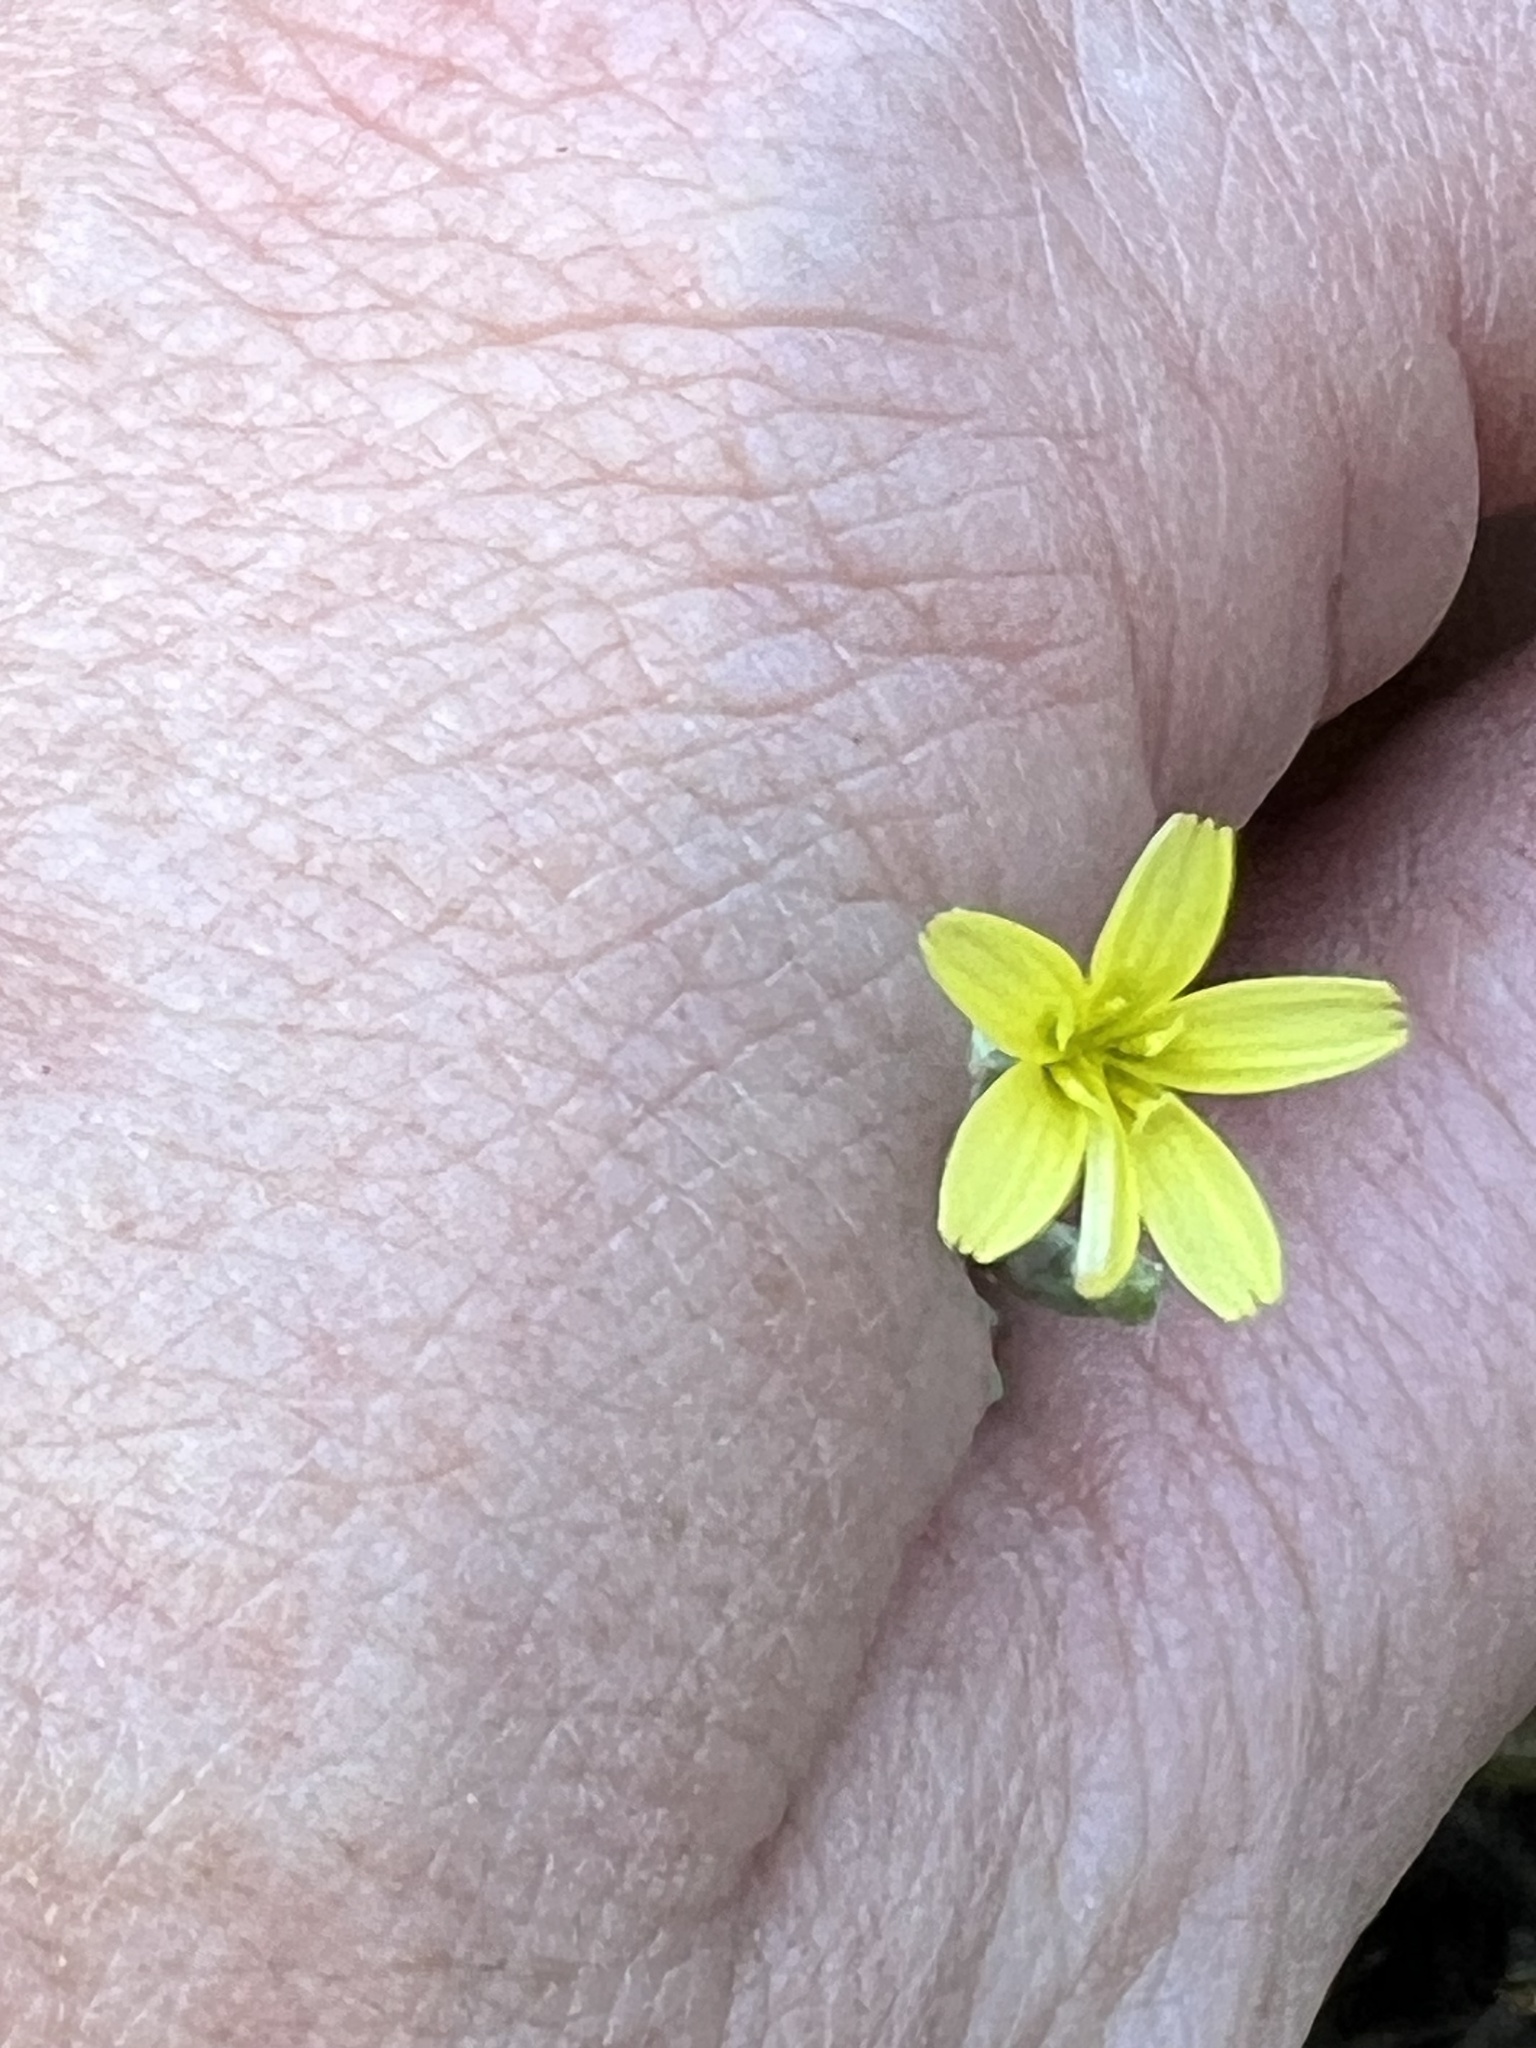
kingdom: Plantae
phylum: Tracheophyta
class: Magnoliopsida
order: Asterales
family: Asteraceae
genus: Lactuca
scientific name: Lactuca serriola
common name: Prickly lettuce
